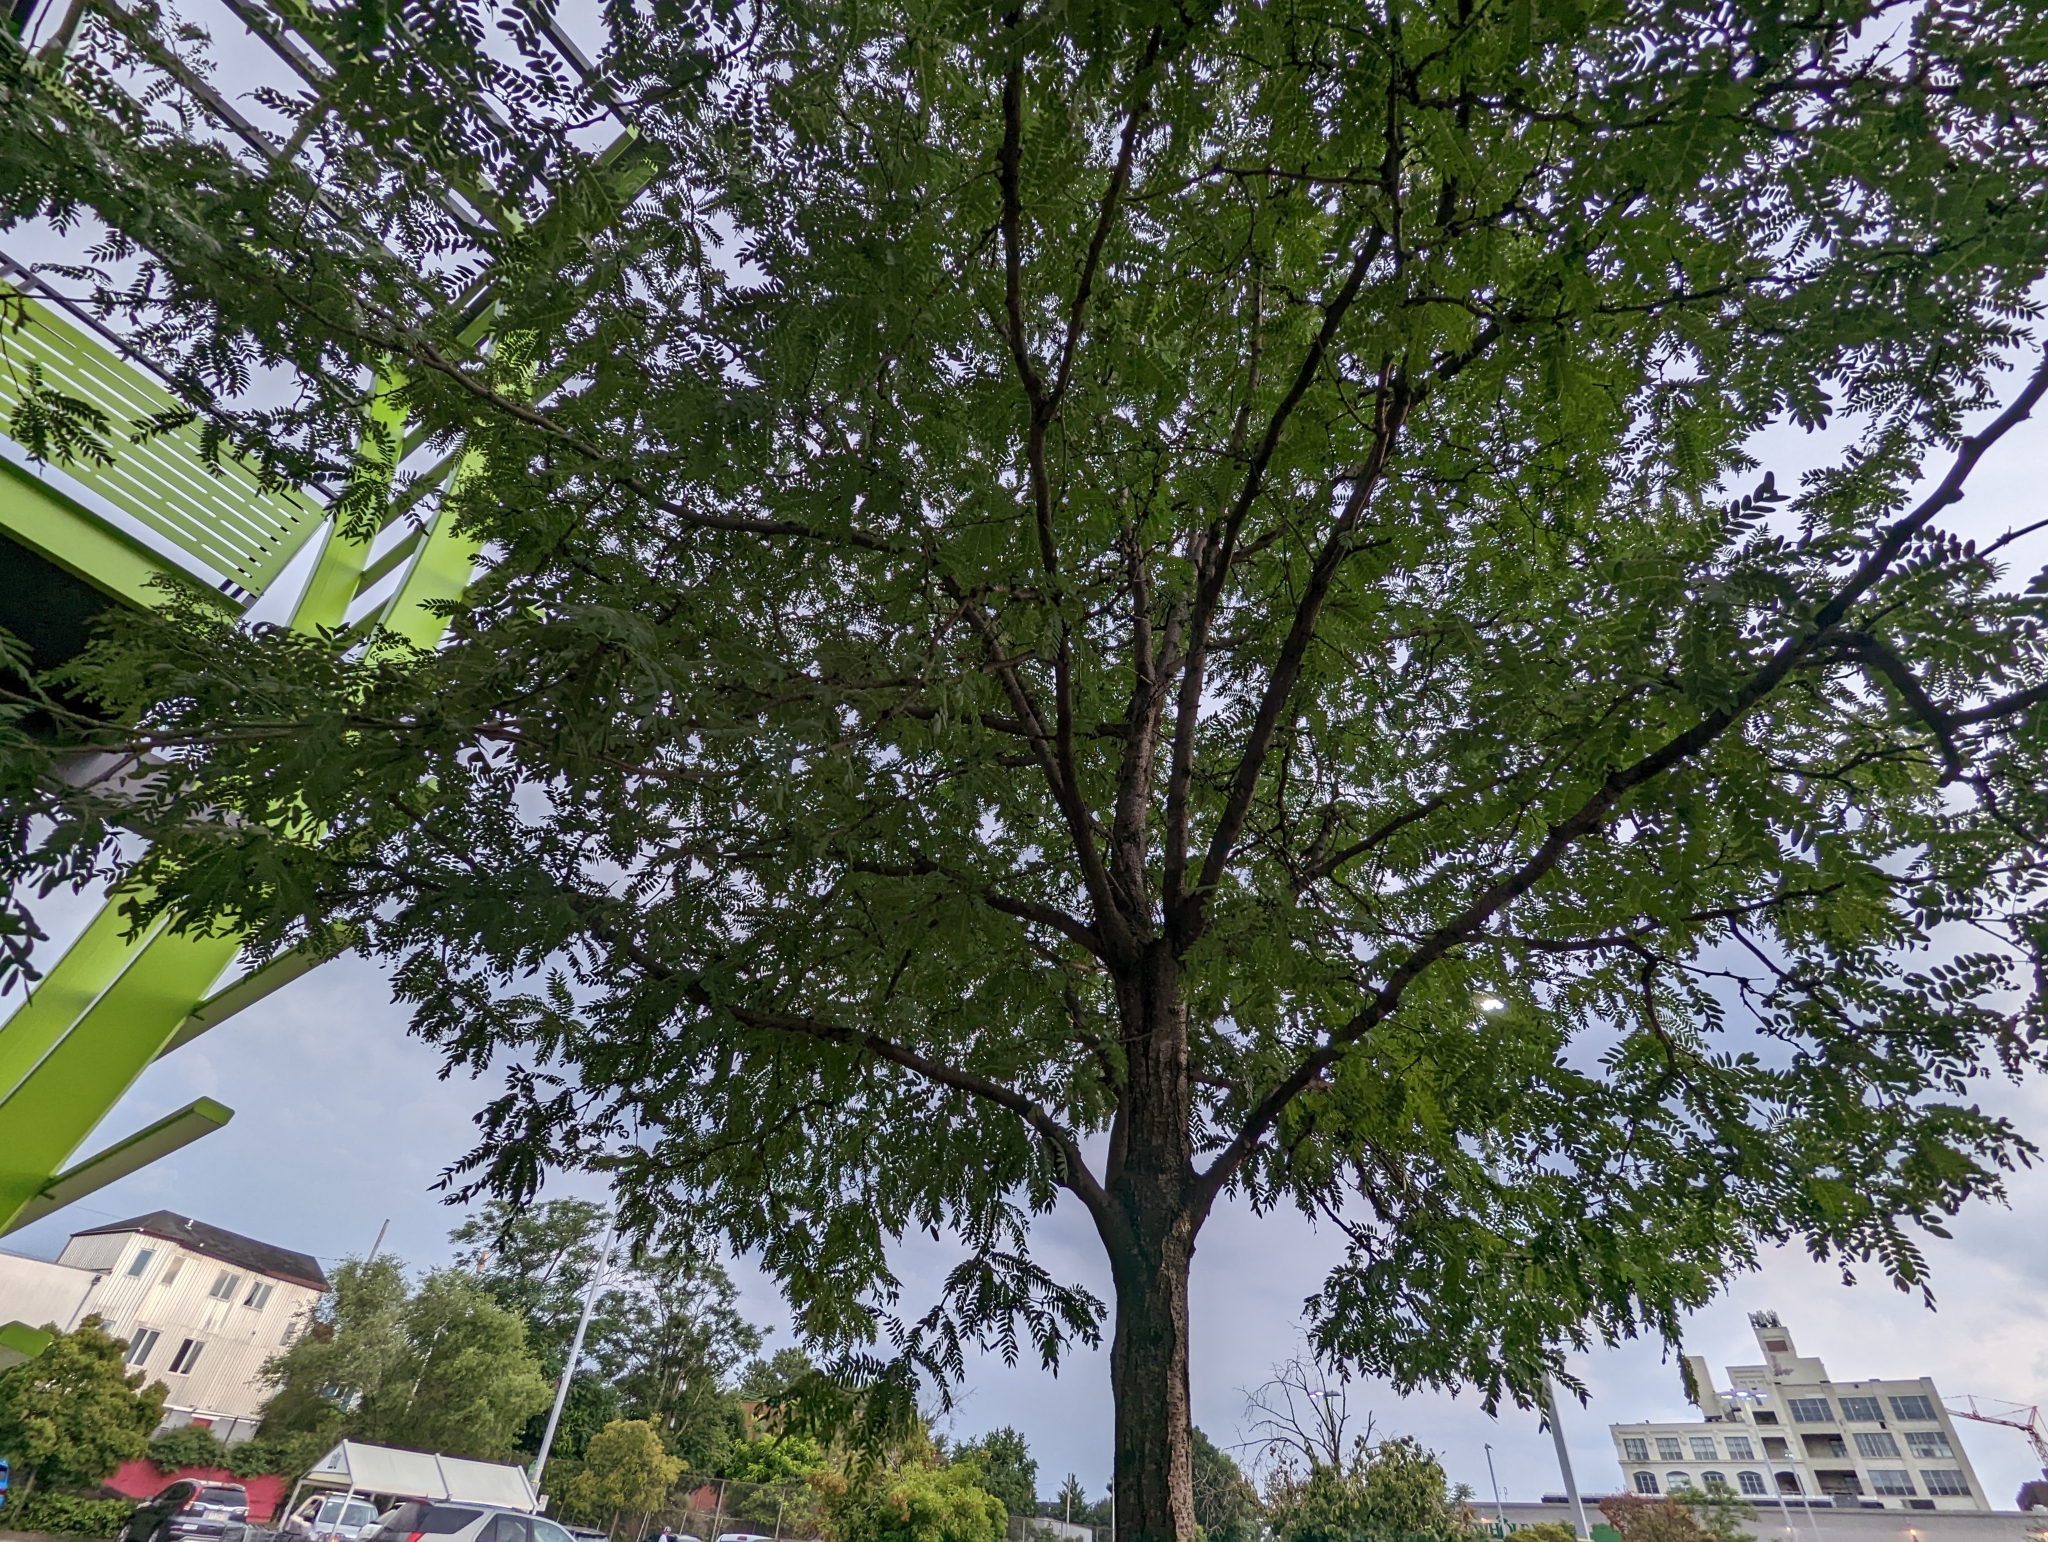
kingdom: Plantae
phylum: Tracheophyta
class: Magnoliopsida
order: Fabales
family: Fabaceae
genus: Gleditsia
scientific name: Gleditsia triacanthos
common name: Common honeylocust
